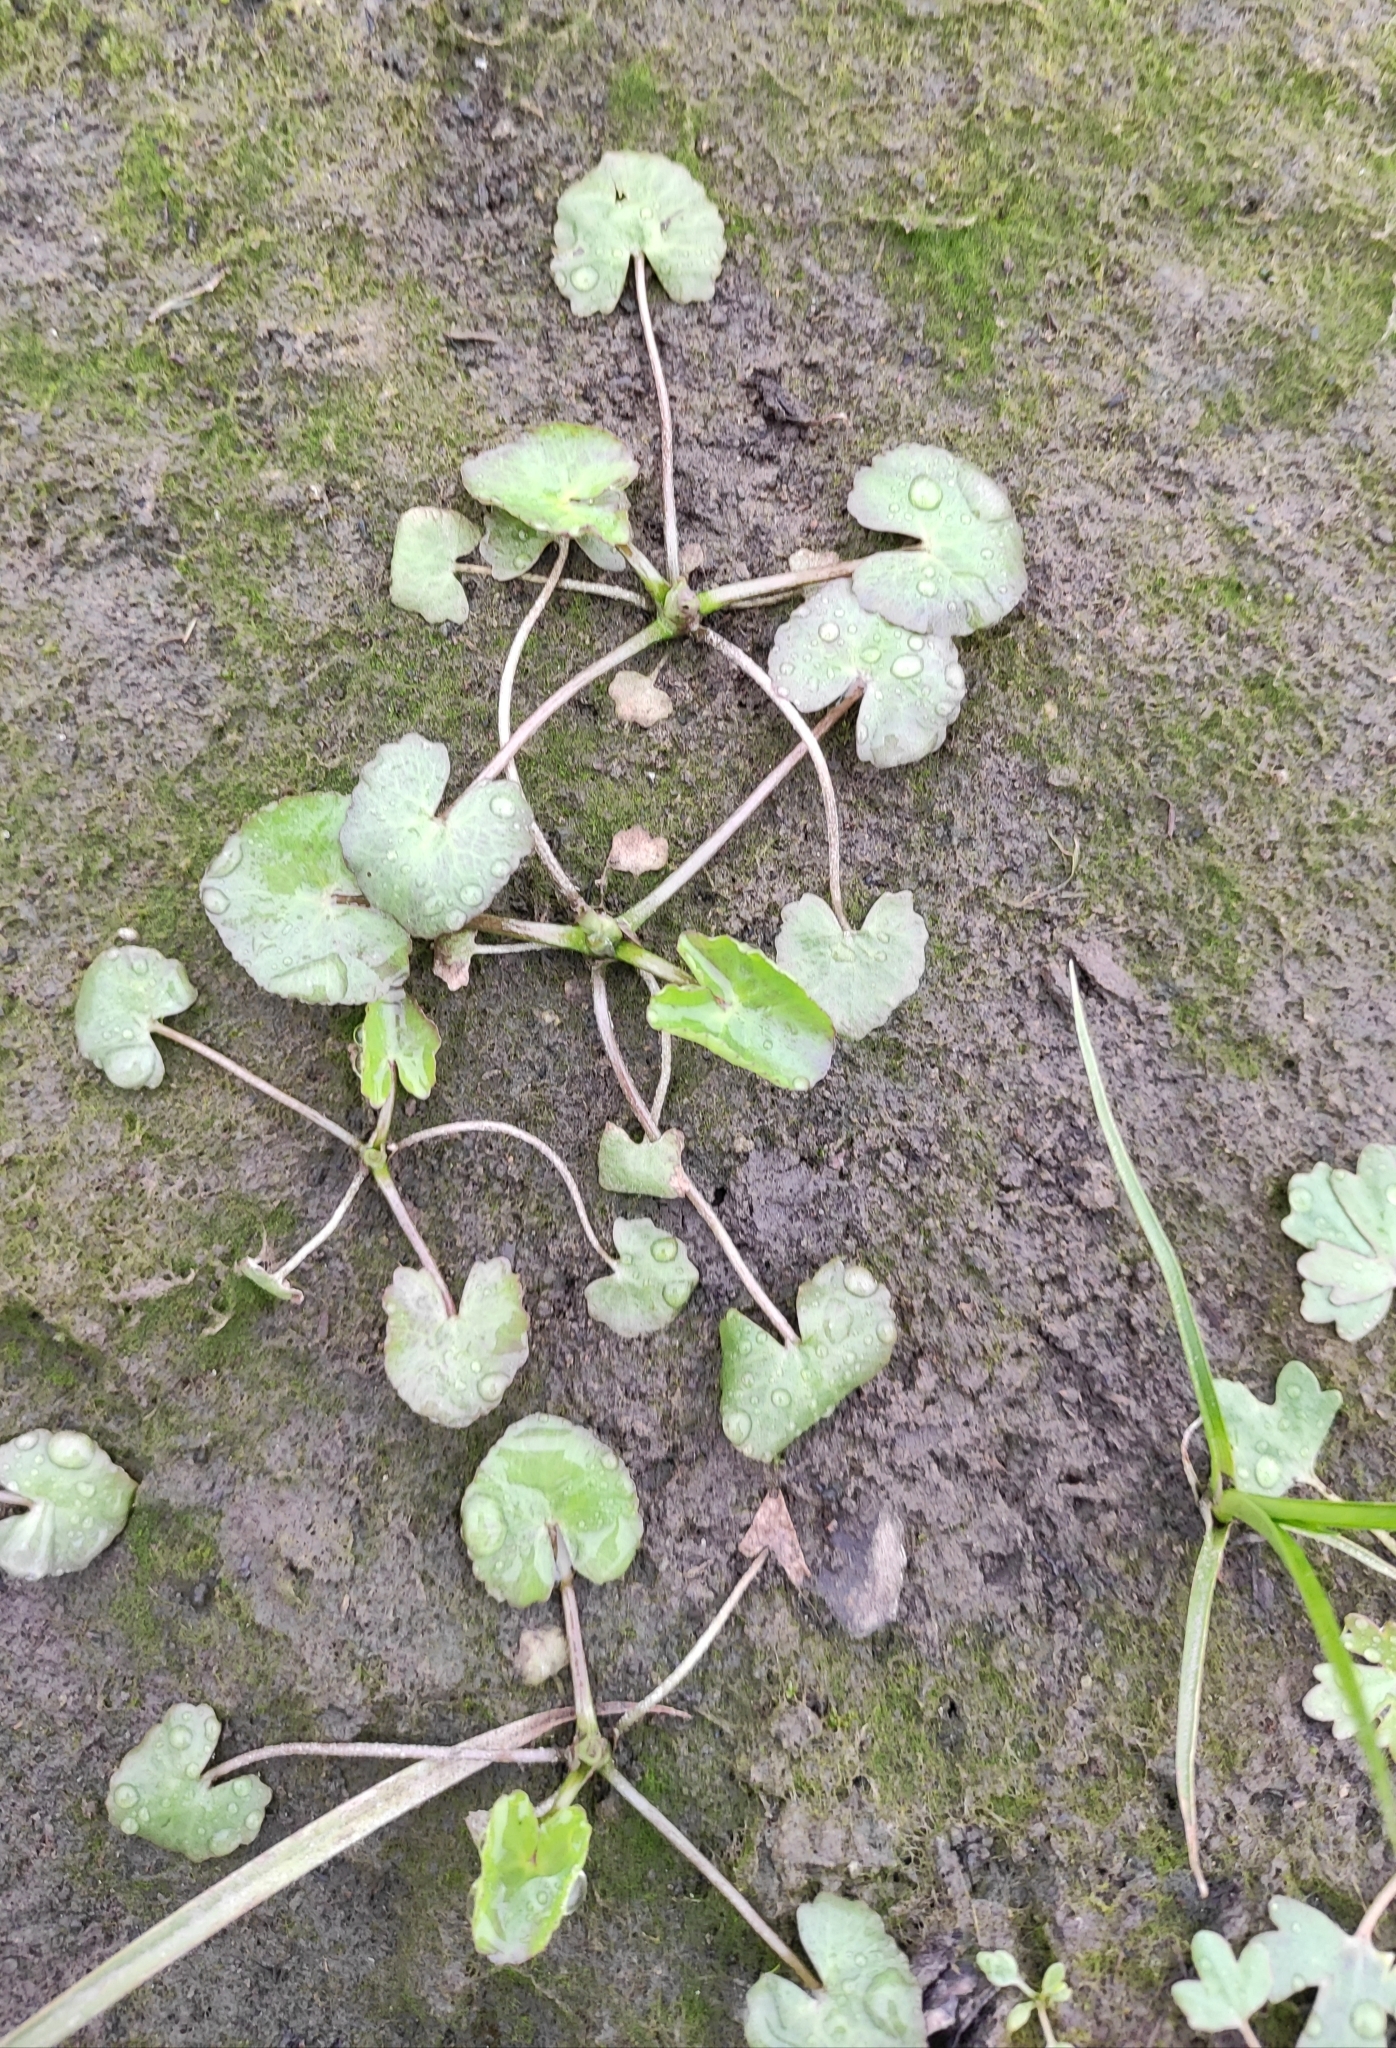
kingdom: Plantae
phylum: Tracheophyta
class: Magnoliopsida
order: Ranunculales
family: Ranunculaceae
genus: Caltha
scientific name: Caltha natans
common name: Floating marsh marigold
